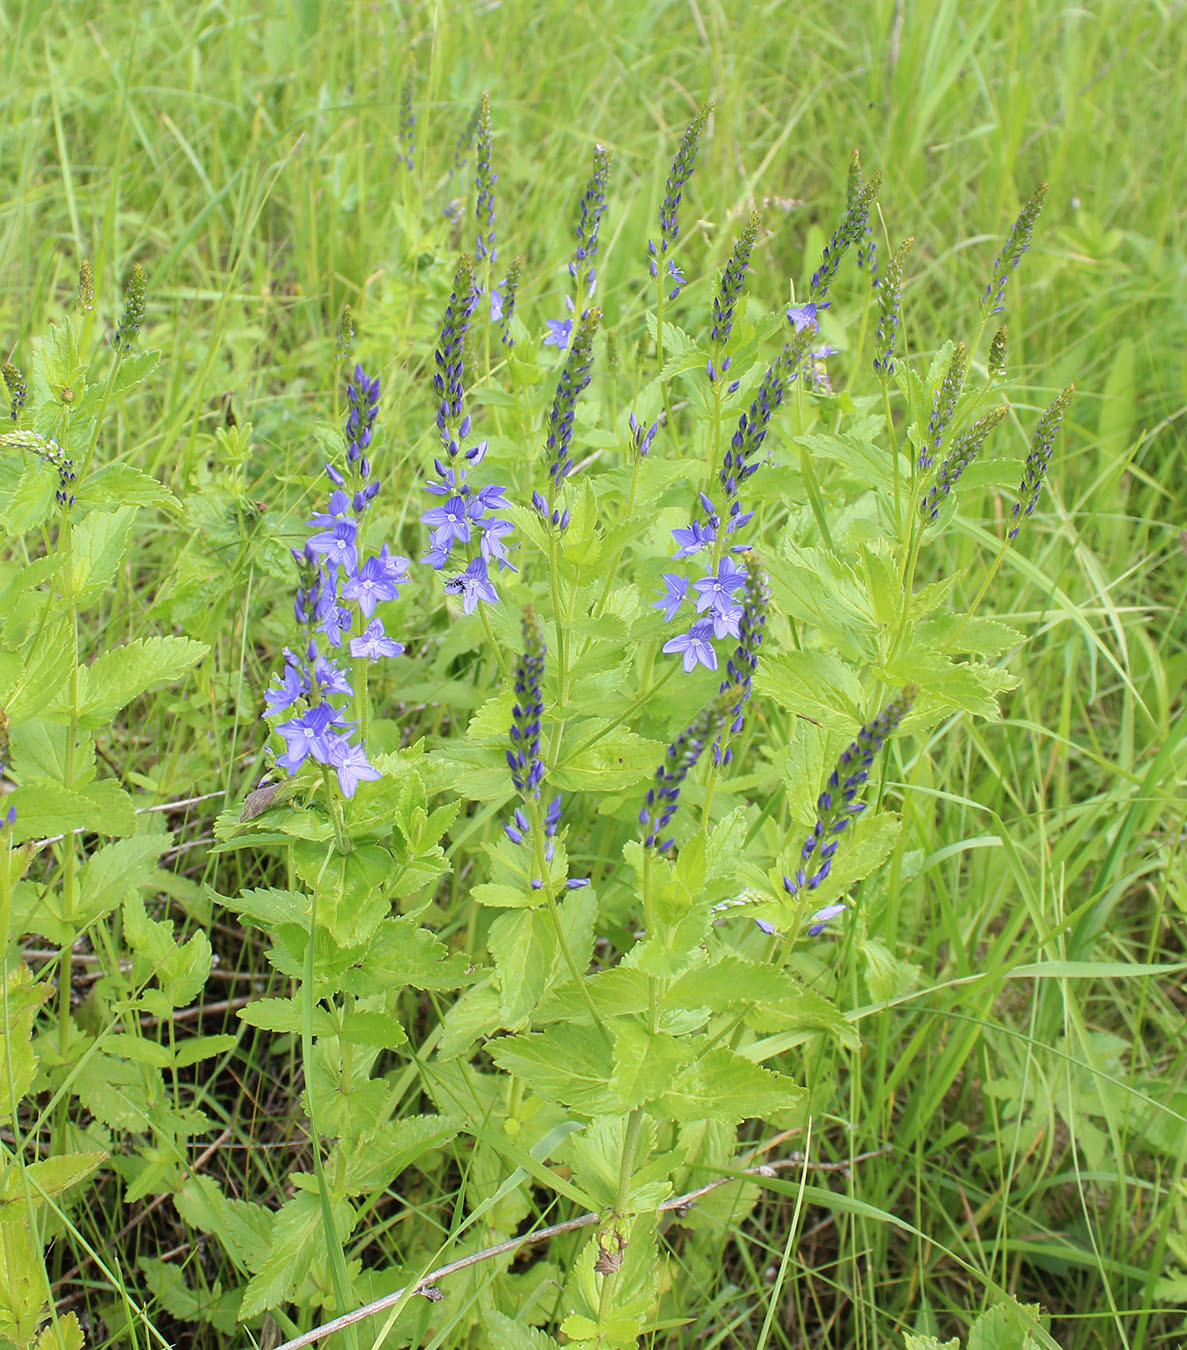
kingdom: Plantae
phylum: Tracheophyta
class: Magnoliopsida
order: Lamiales
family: Plantaginaceae
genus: Veronica
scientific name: Veronica teucrium
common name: Large speedwell
